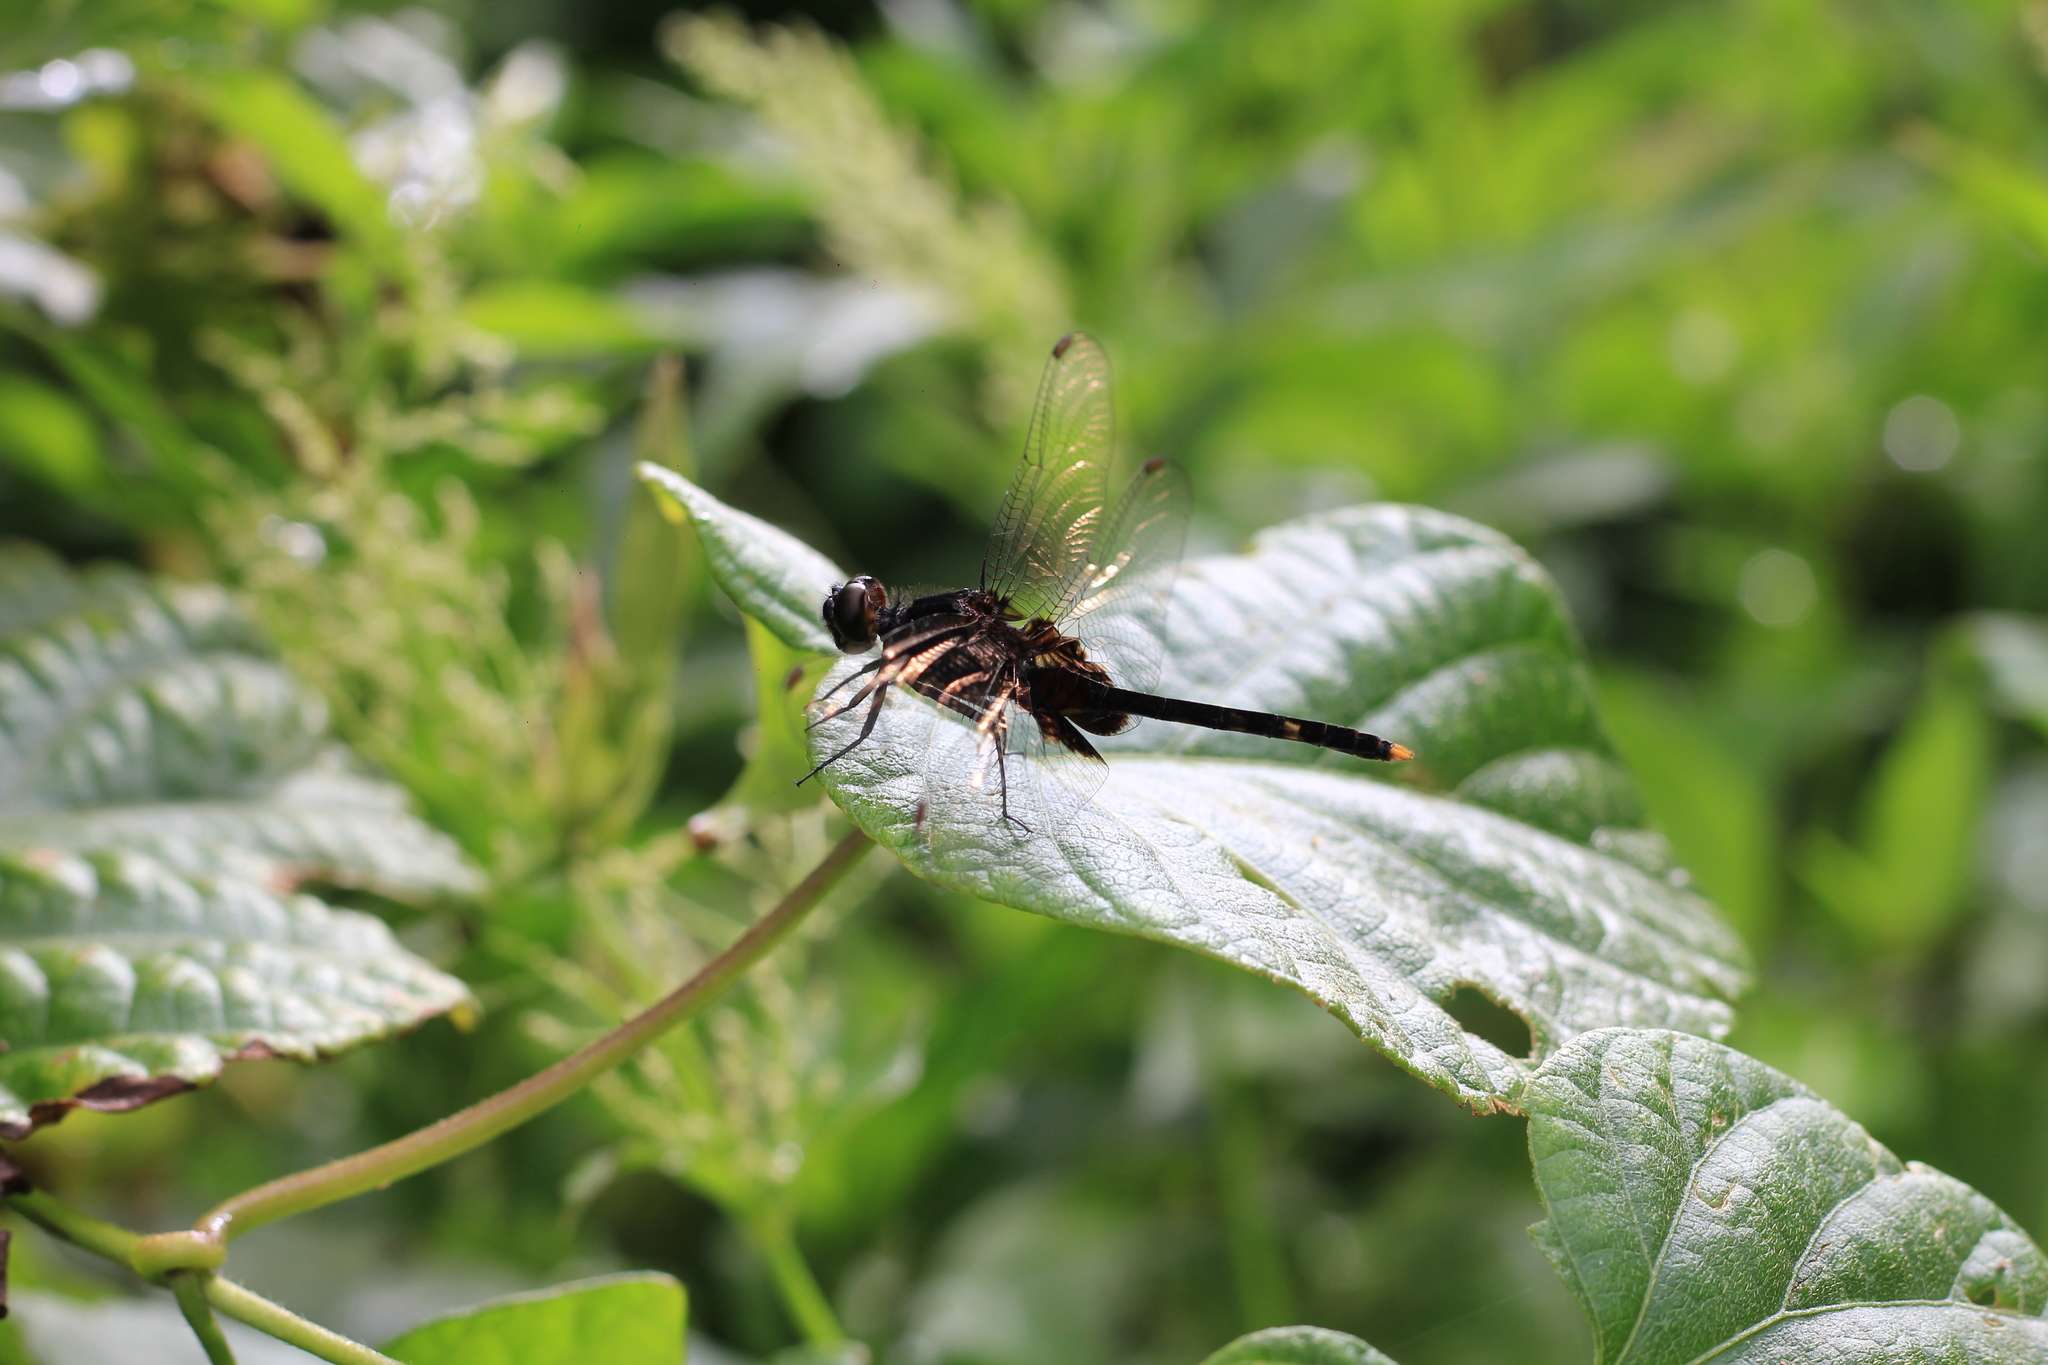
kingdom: Animalia
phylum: Arthropoda
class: Insecta
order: Odonata
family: Libellulidae
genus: Erythemis
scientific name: Erythemis attala
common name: Black pondhawk
